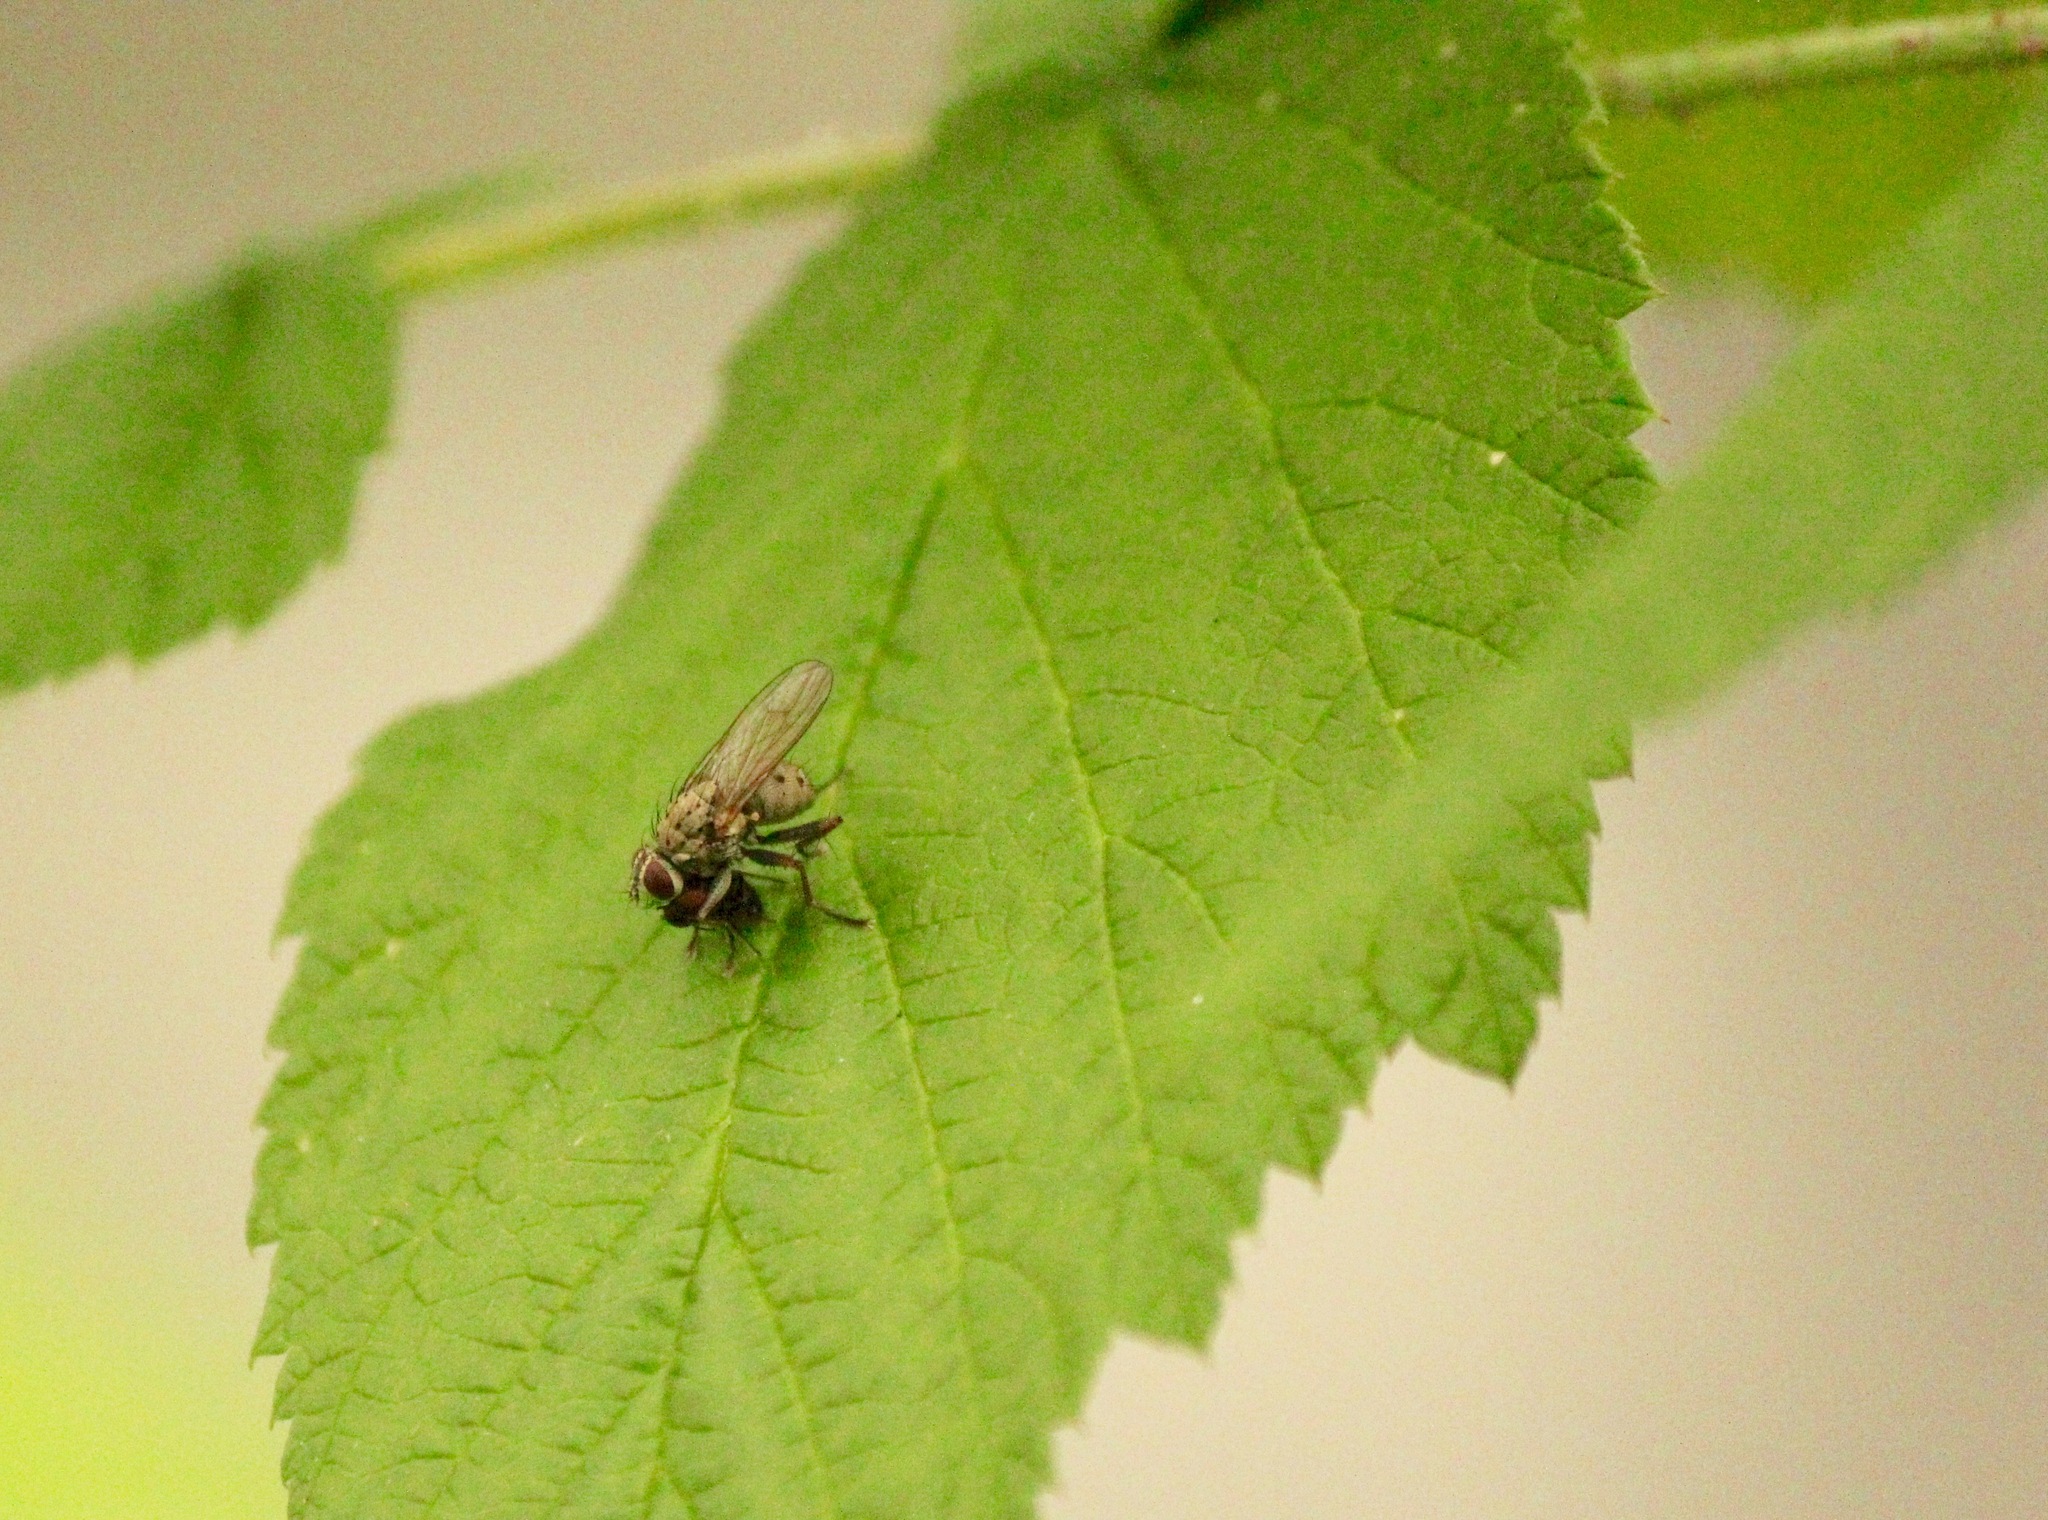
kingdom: Animalia
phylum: Arthropoda
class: Insecta
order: Diptera
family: Muscidae
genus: Coenosia
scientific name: Coenosia tigrina
